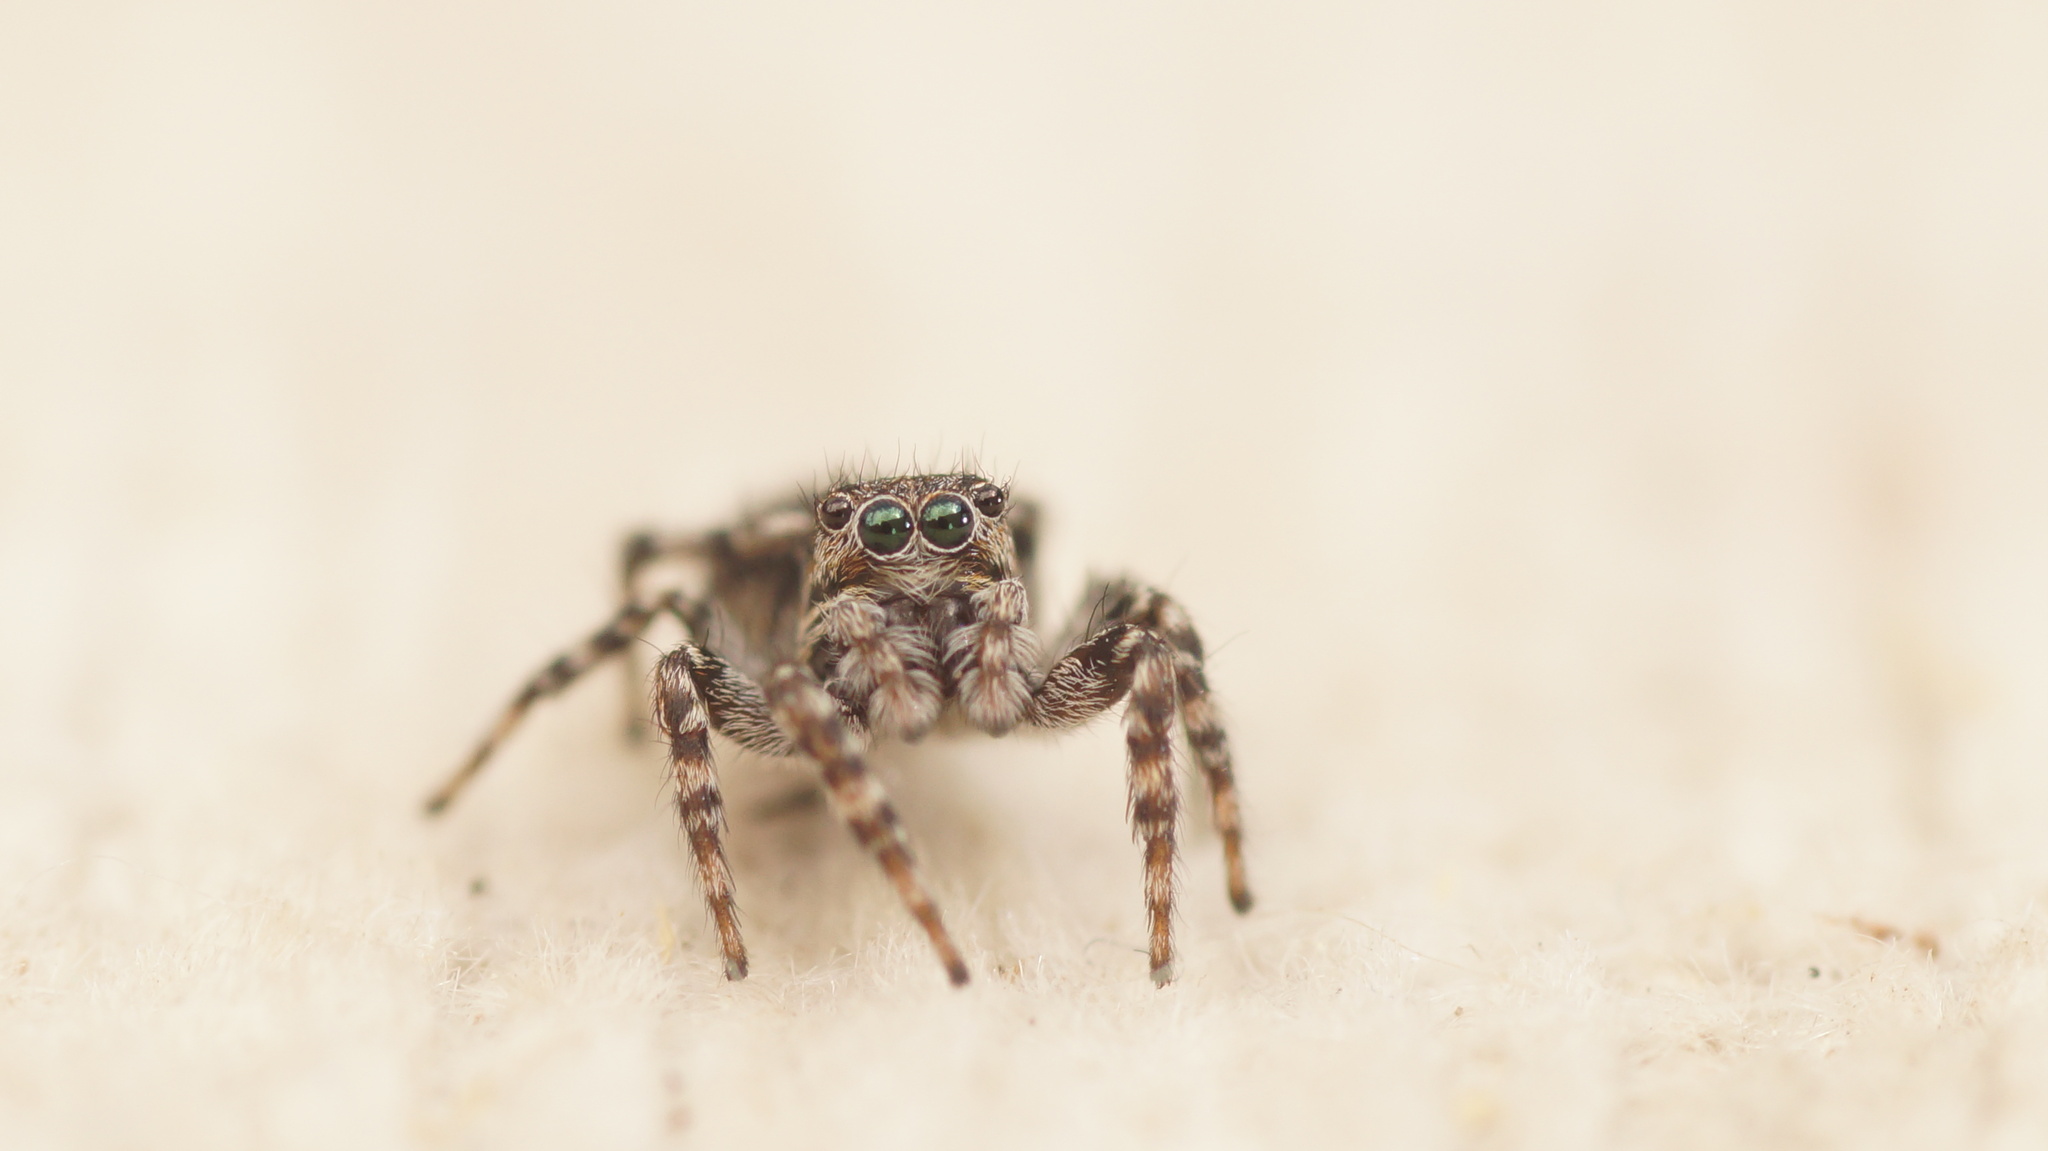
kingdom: Animalia
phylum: Arthropoda
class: Arachnida
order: Araneae
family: Salticidae
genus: Attulus
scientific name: Attulus terebratus
